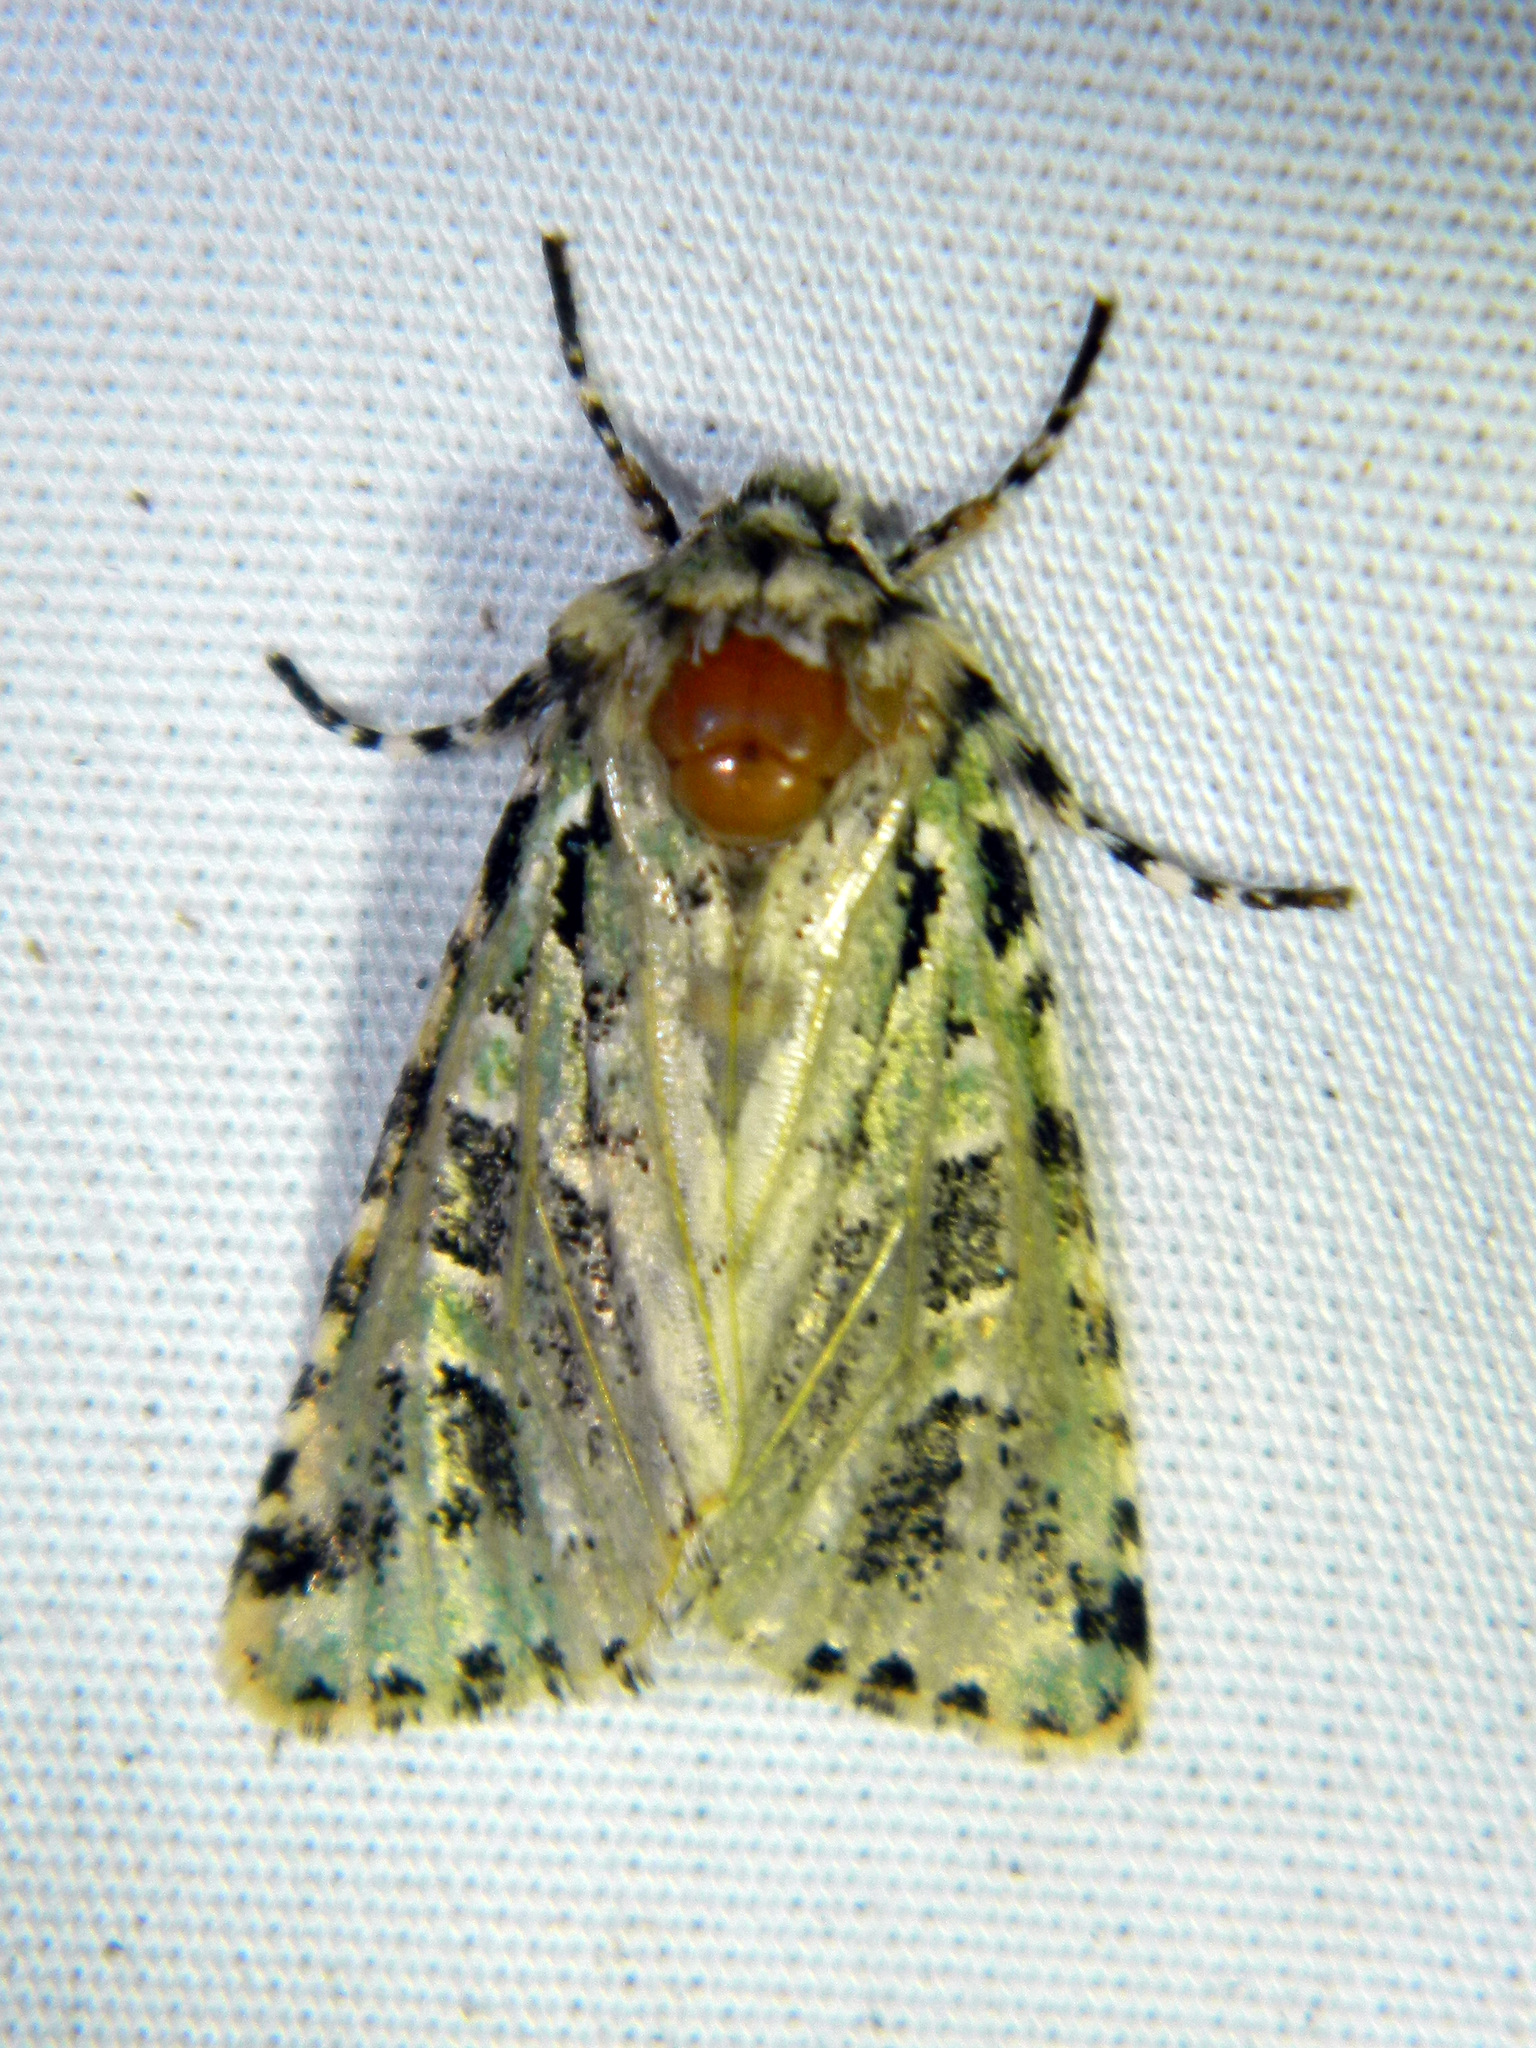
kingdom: Animalia
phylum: Arthropoda
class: Insecta
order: Lepidoptera
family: Noctuidae
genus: Feralia
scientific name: Feralia comstocki
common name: Comstock's sallow
